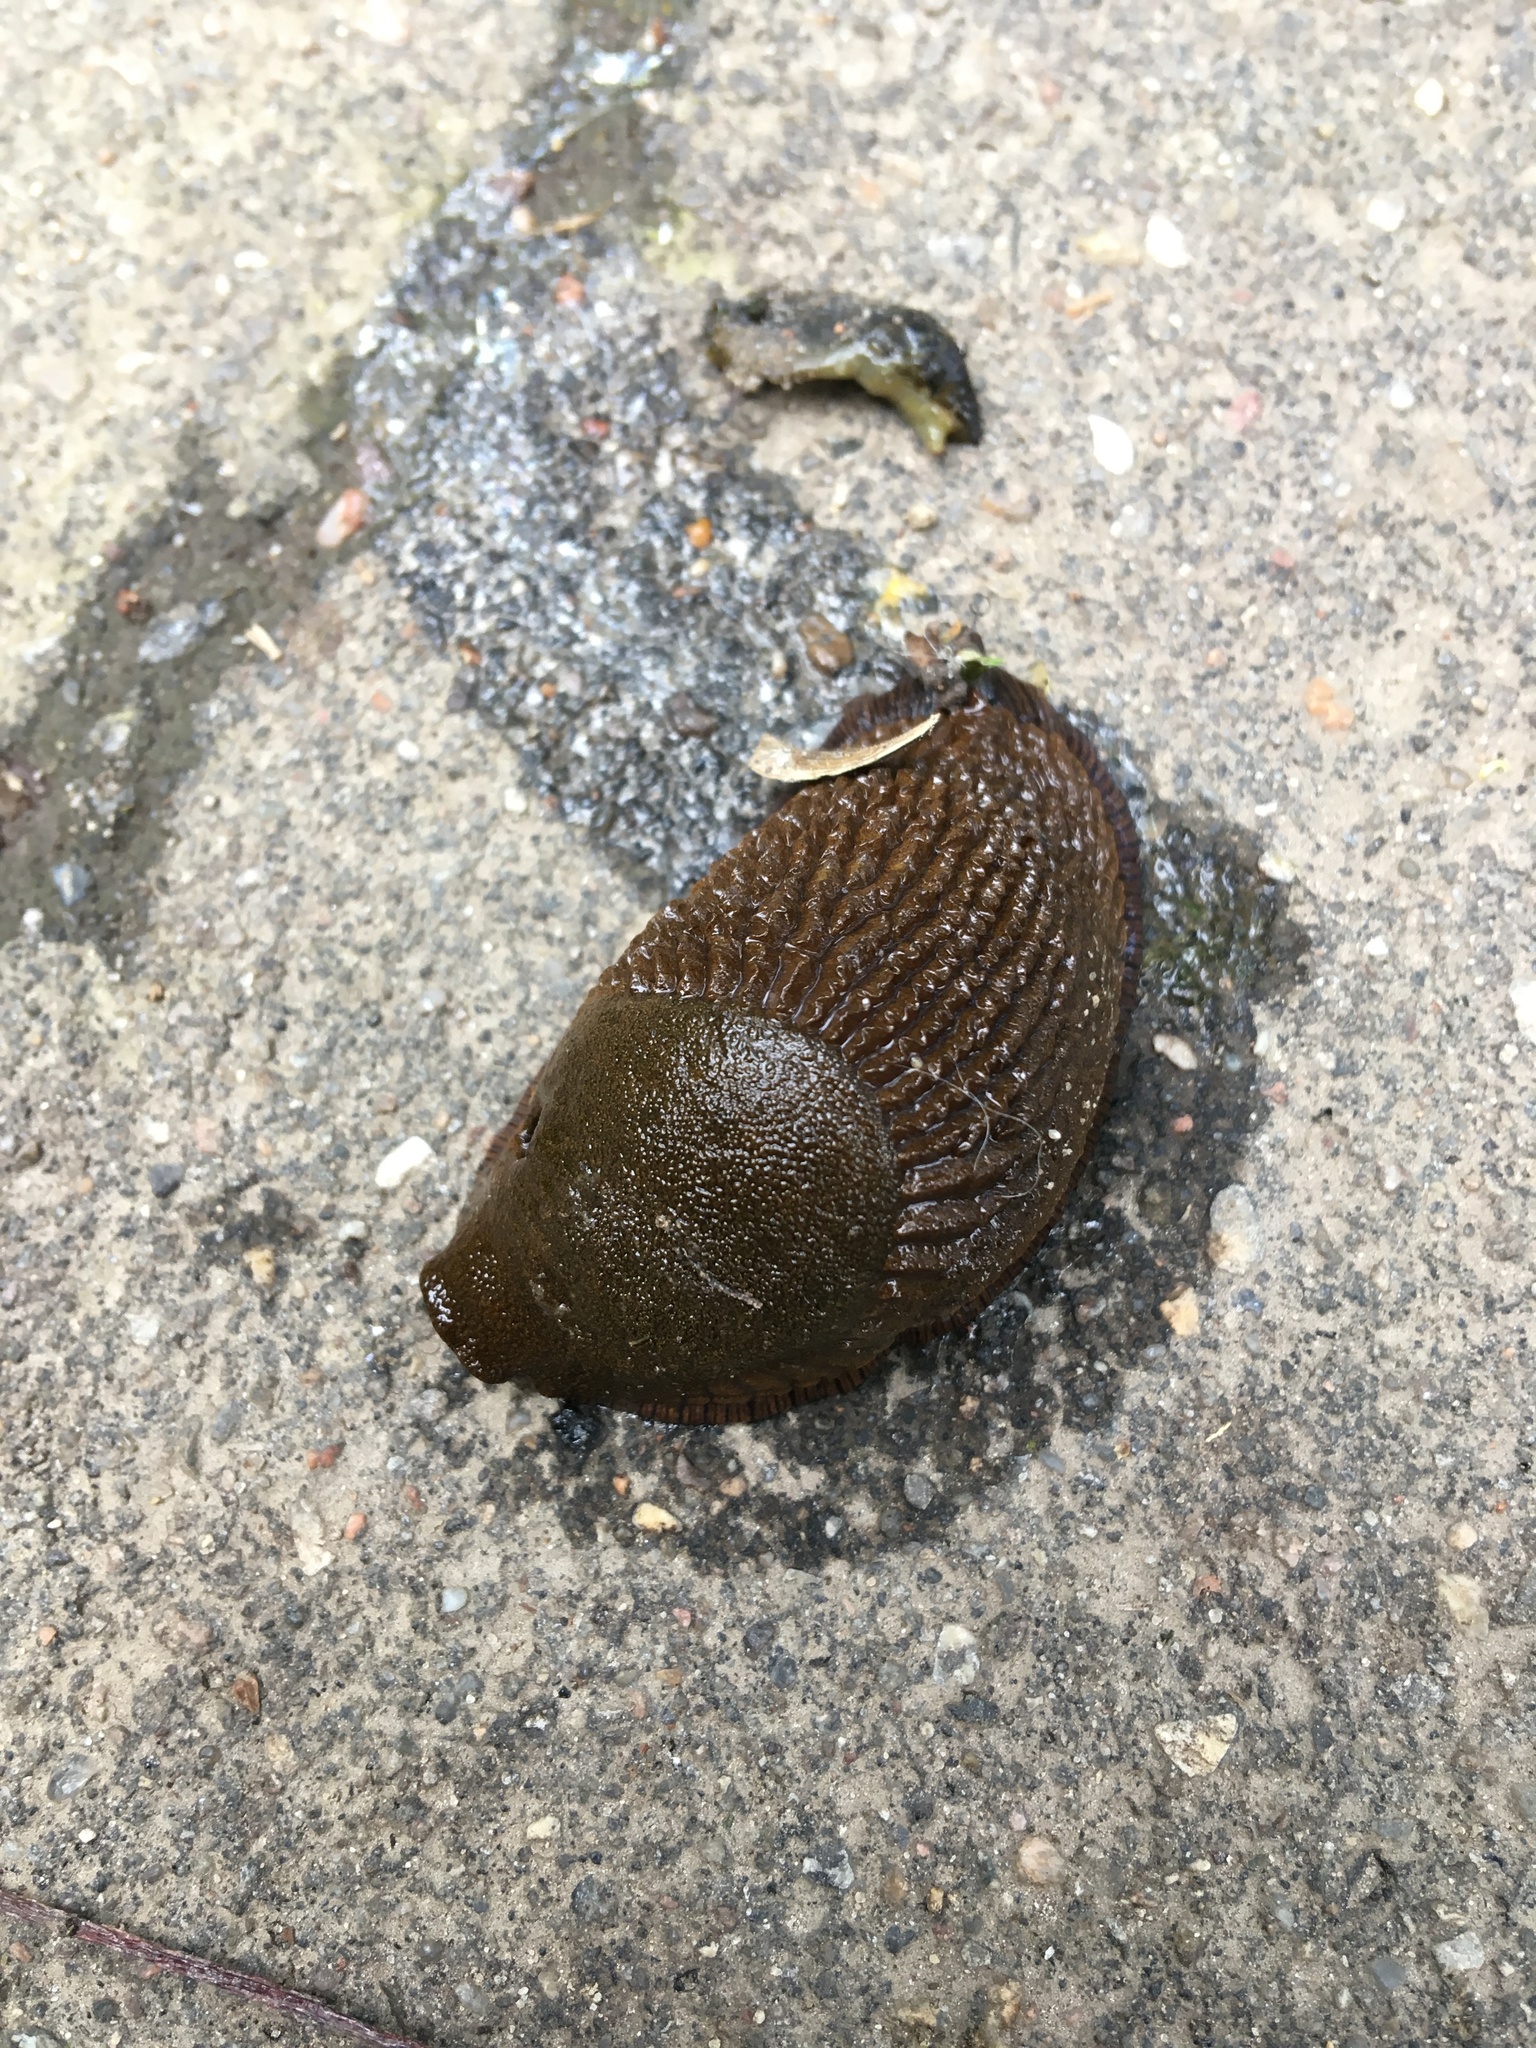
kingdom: Animalia
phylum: Mollusca
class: Gastropoda
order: Stylommatophora
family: Arionidae
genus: Arion
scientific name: Arion
